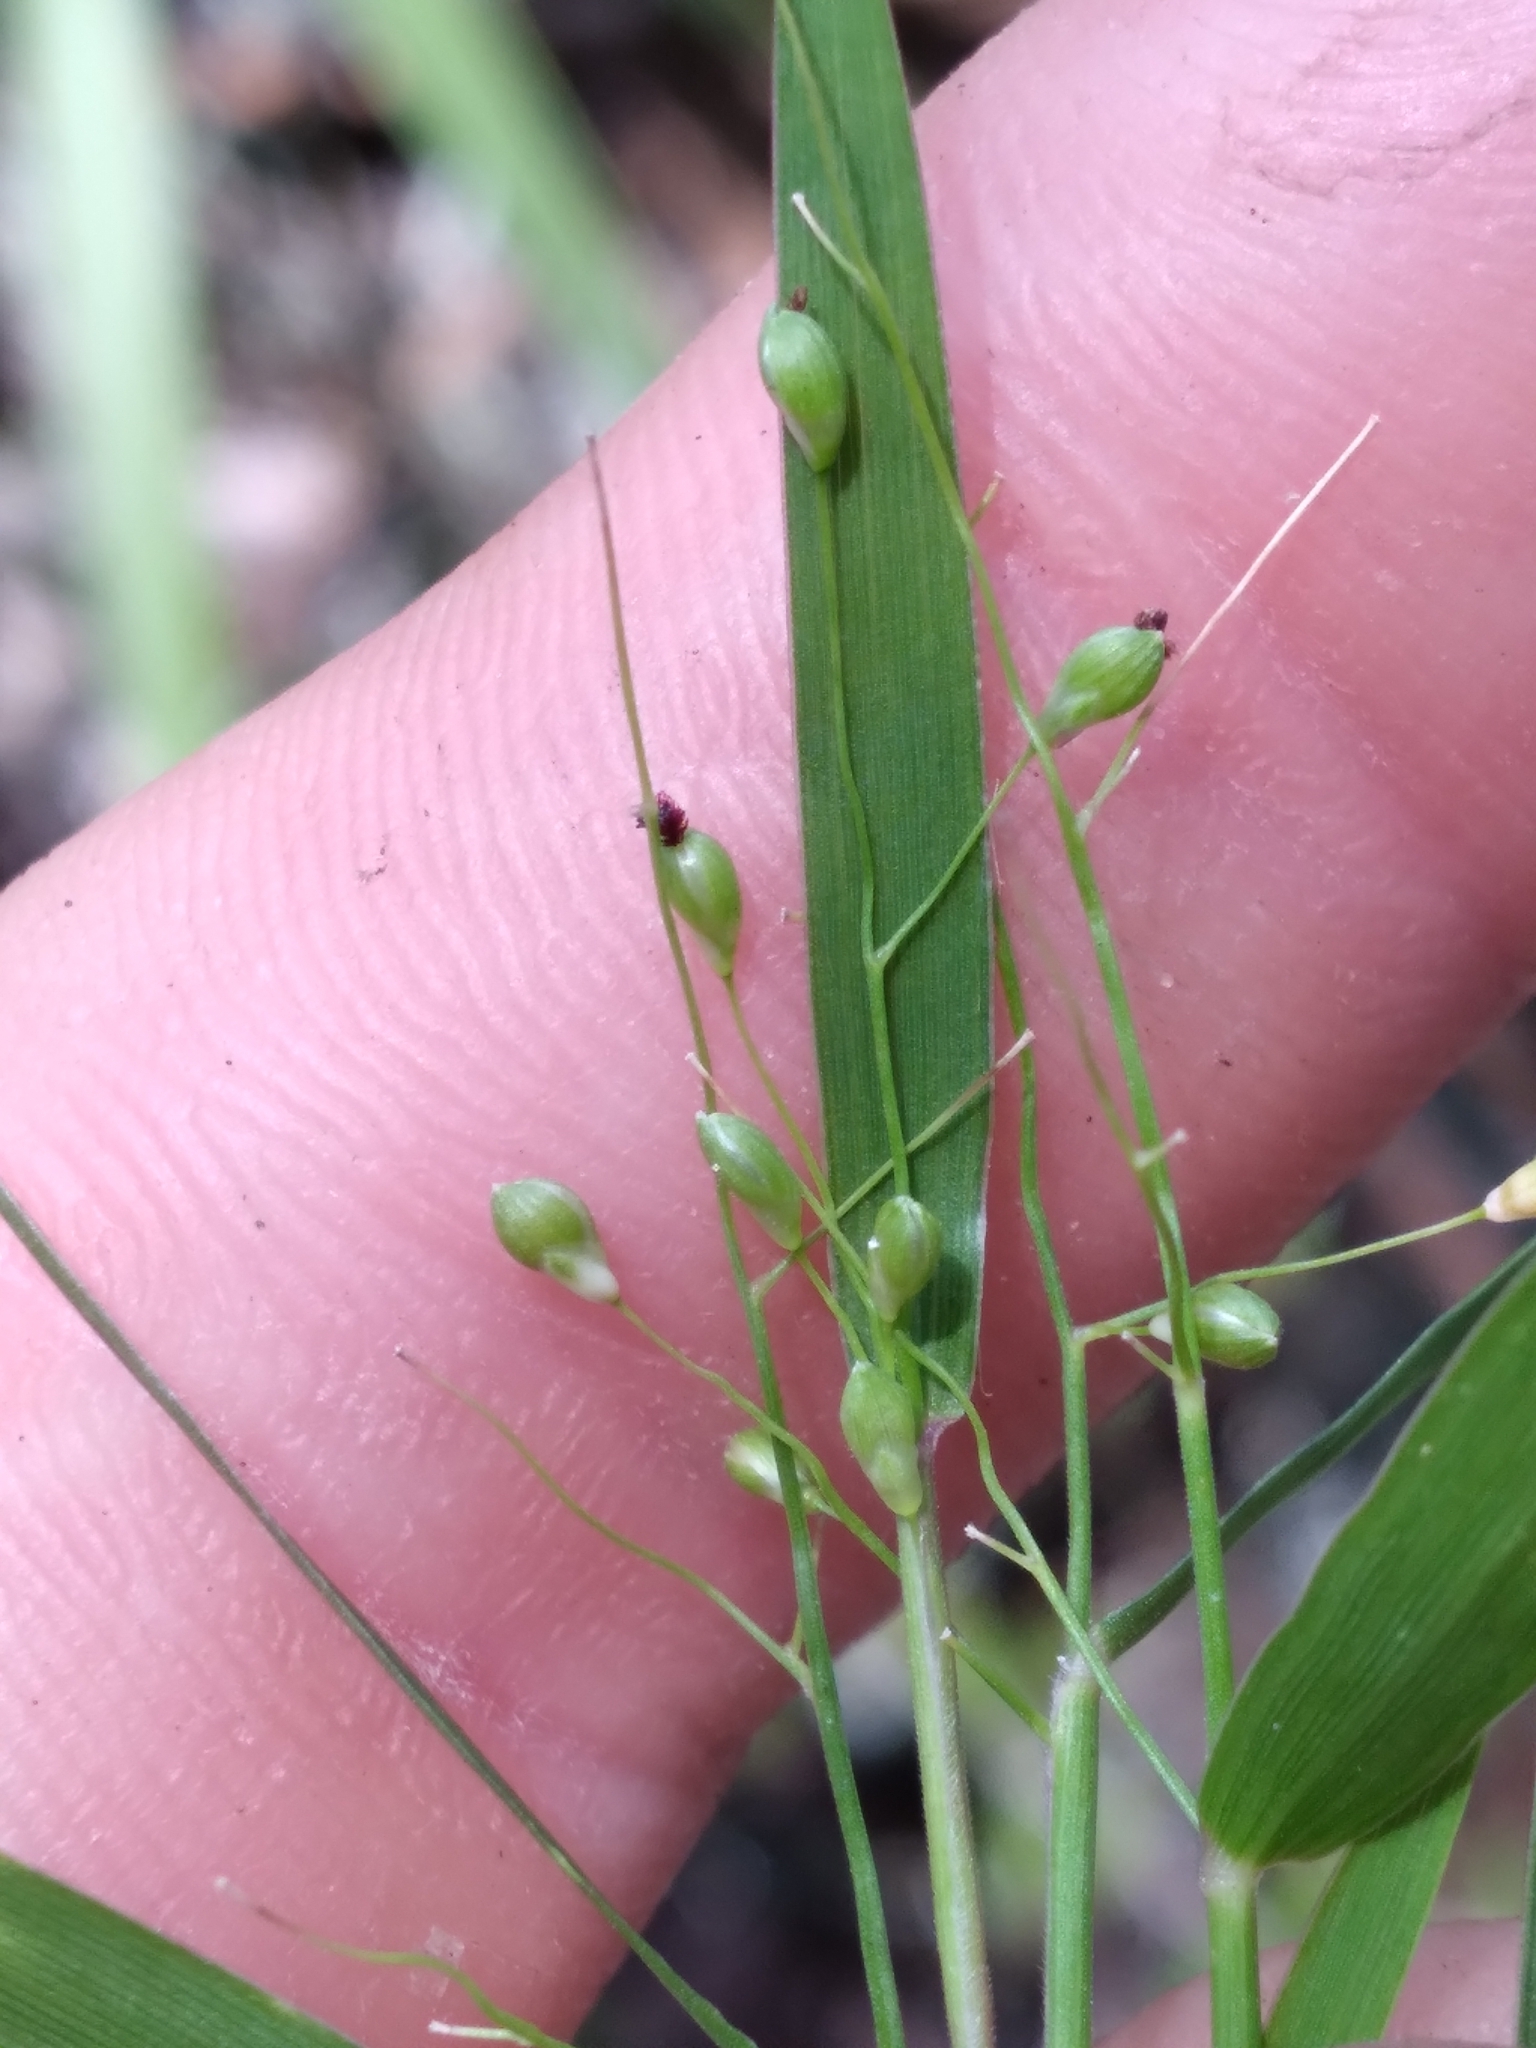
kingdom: Plantae
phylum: Tracheophyta
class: Liliopsida
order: Poales
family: Poaceae
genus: Dichanthelium
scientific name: Dichanthelium patentifolium
